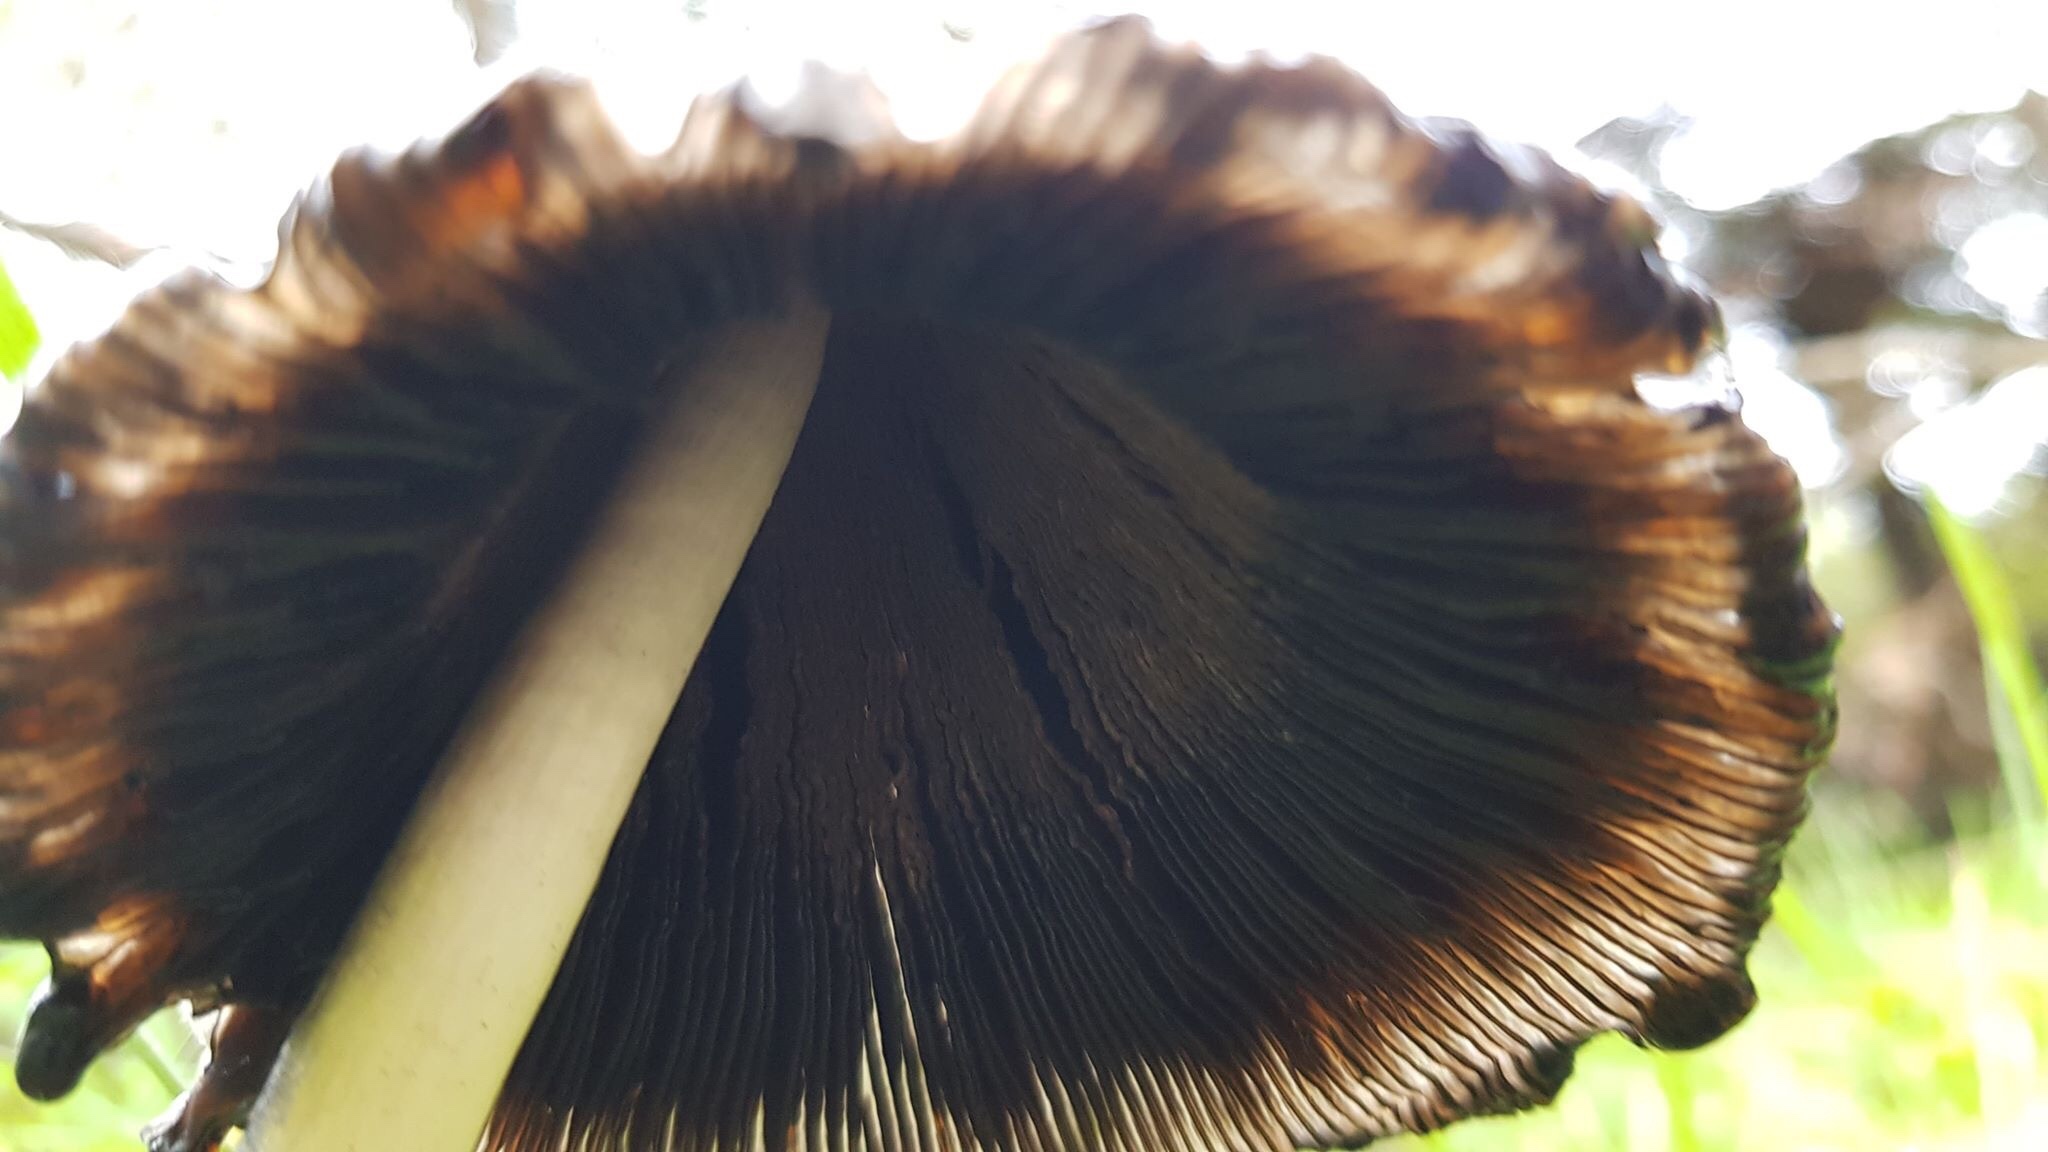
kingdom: Fungi
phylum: Basidiomycota
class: Agaricomycetes
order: Agaricales
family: Agaricaceae
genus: Coprinus
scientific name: Coprinus comatus
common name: Lawyer's wig
